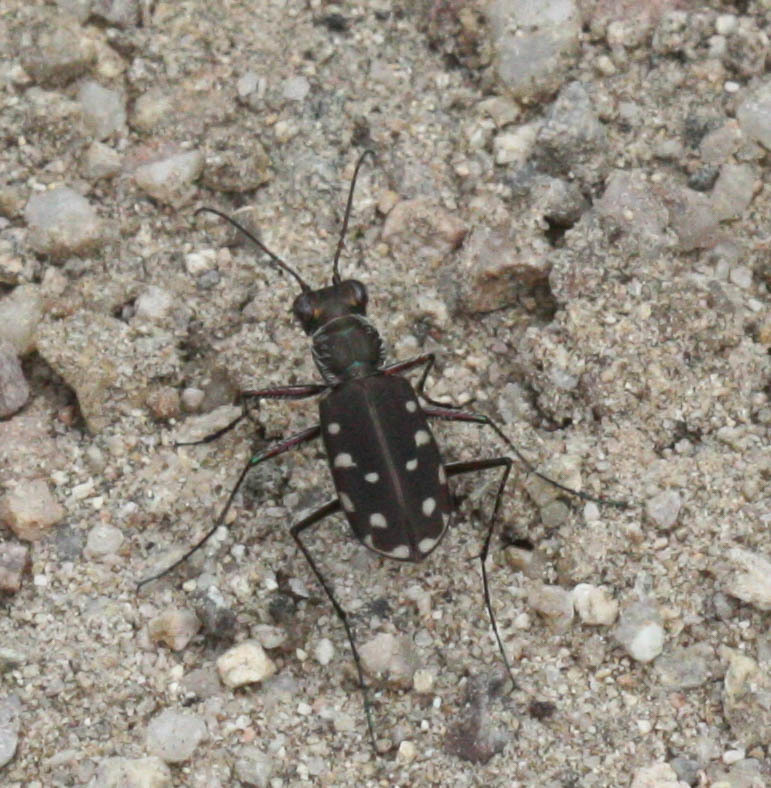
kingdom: Animalia
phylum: Arthropoda
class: Insecta
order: Coleoptera
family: Carabidae
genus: Cicindela
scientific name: Cicindela sedecimpunctata
